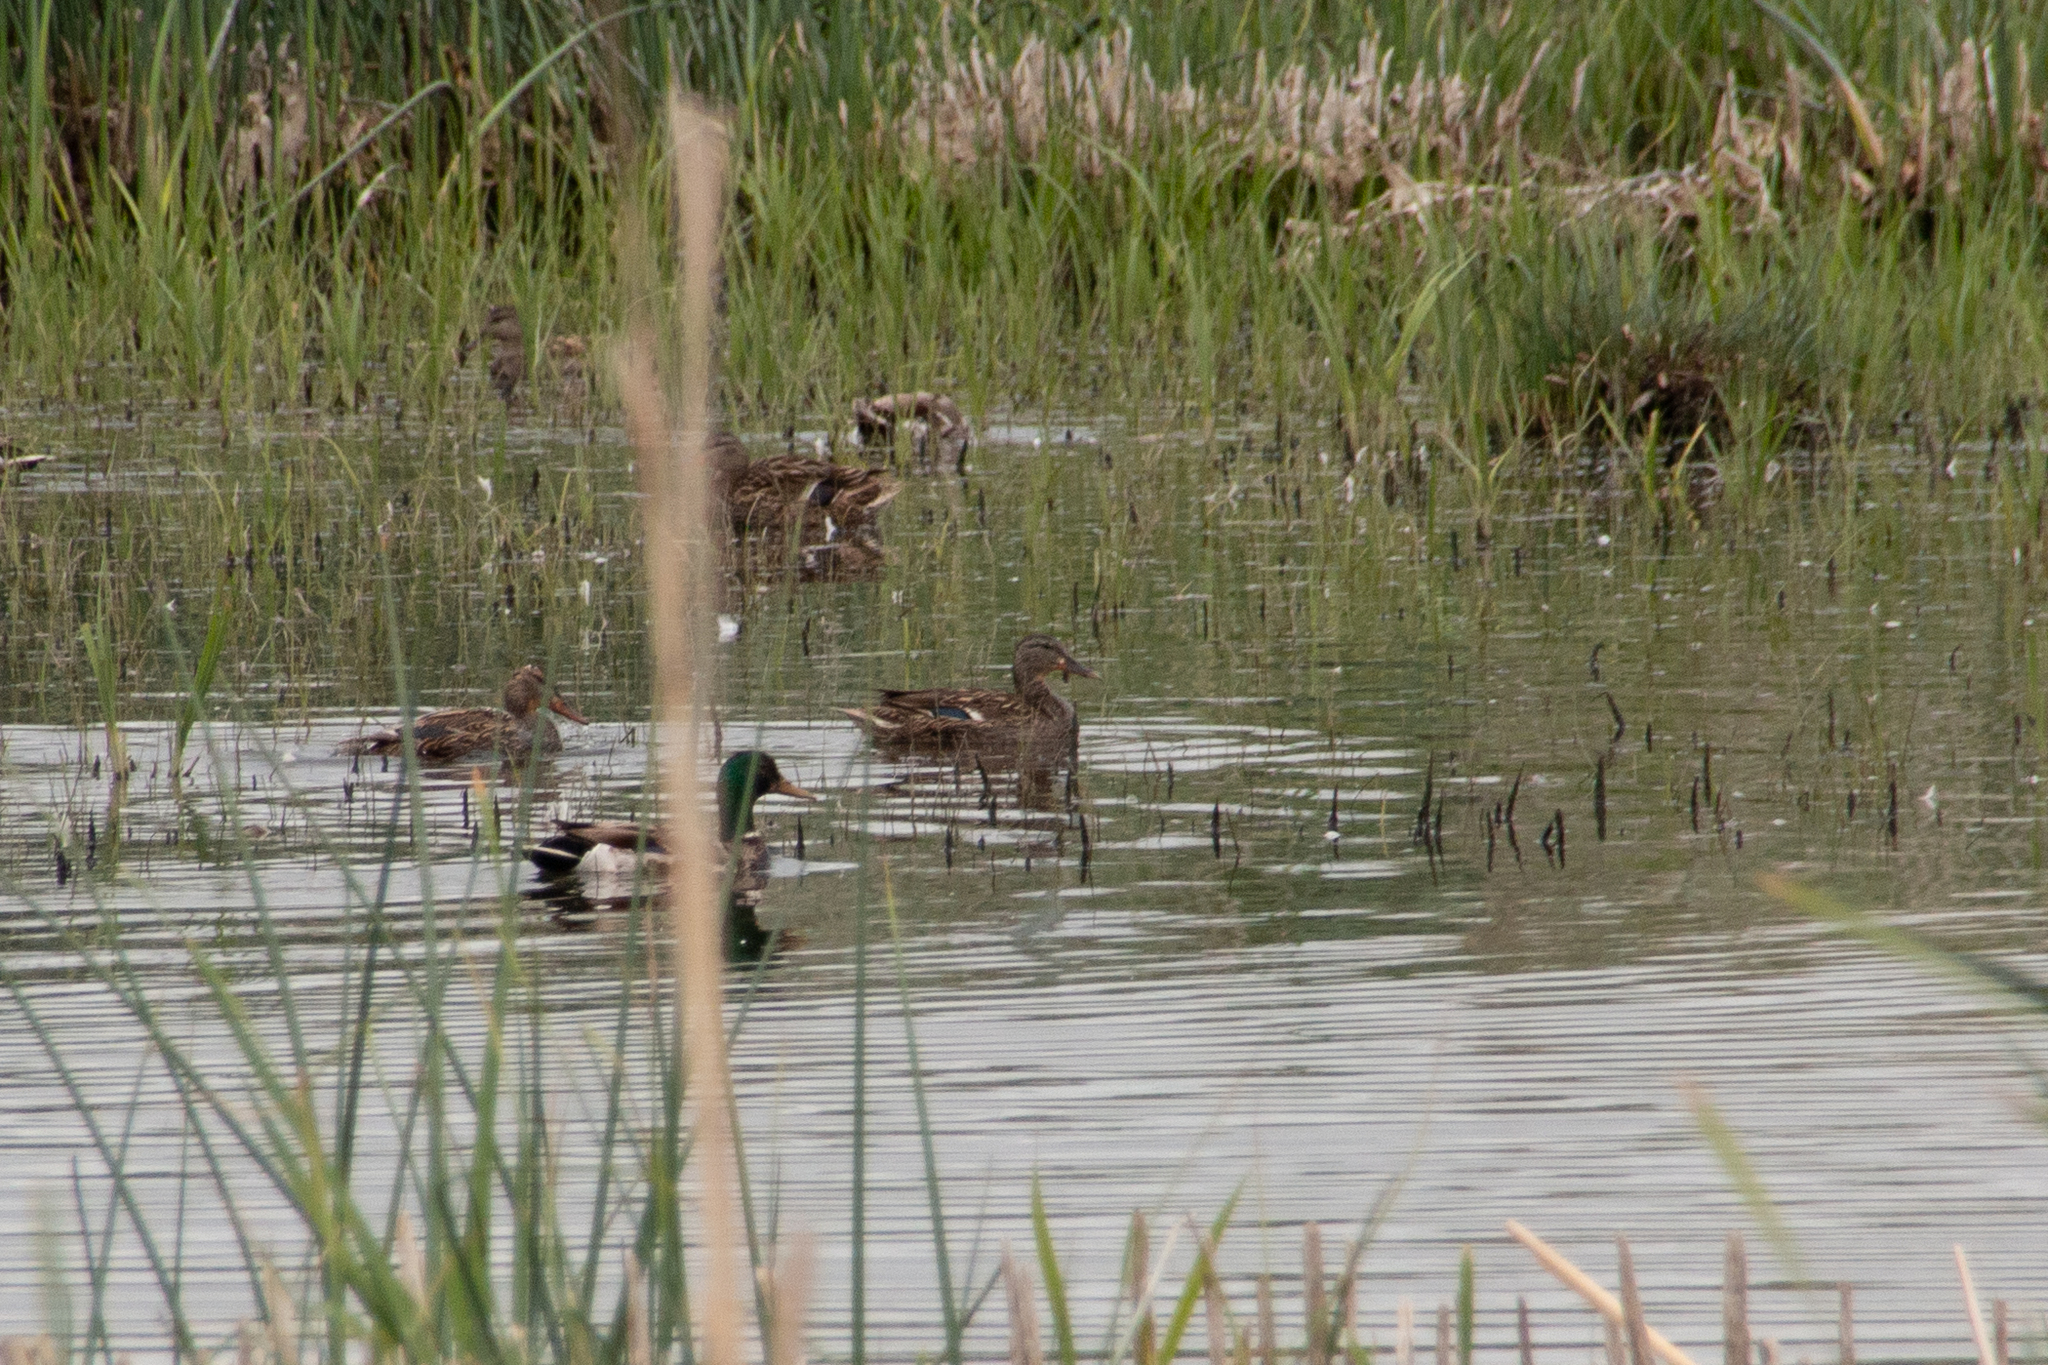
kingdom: Animalia
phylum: Chordata
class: Aves
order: Anseriformes
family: Anatidae
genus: Anas
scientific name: Anas platyrhynchos
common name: Mallard
